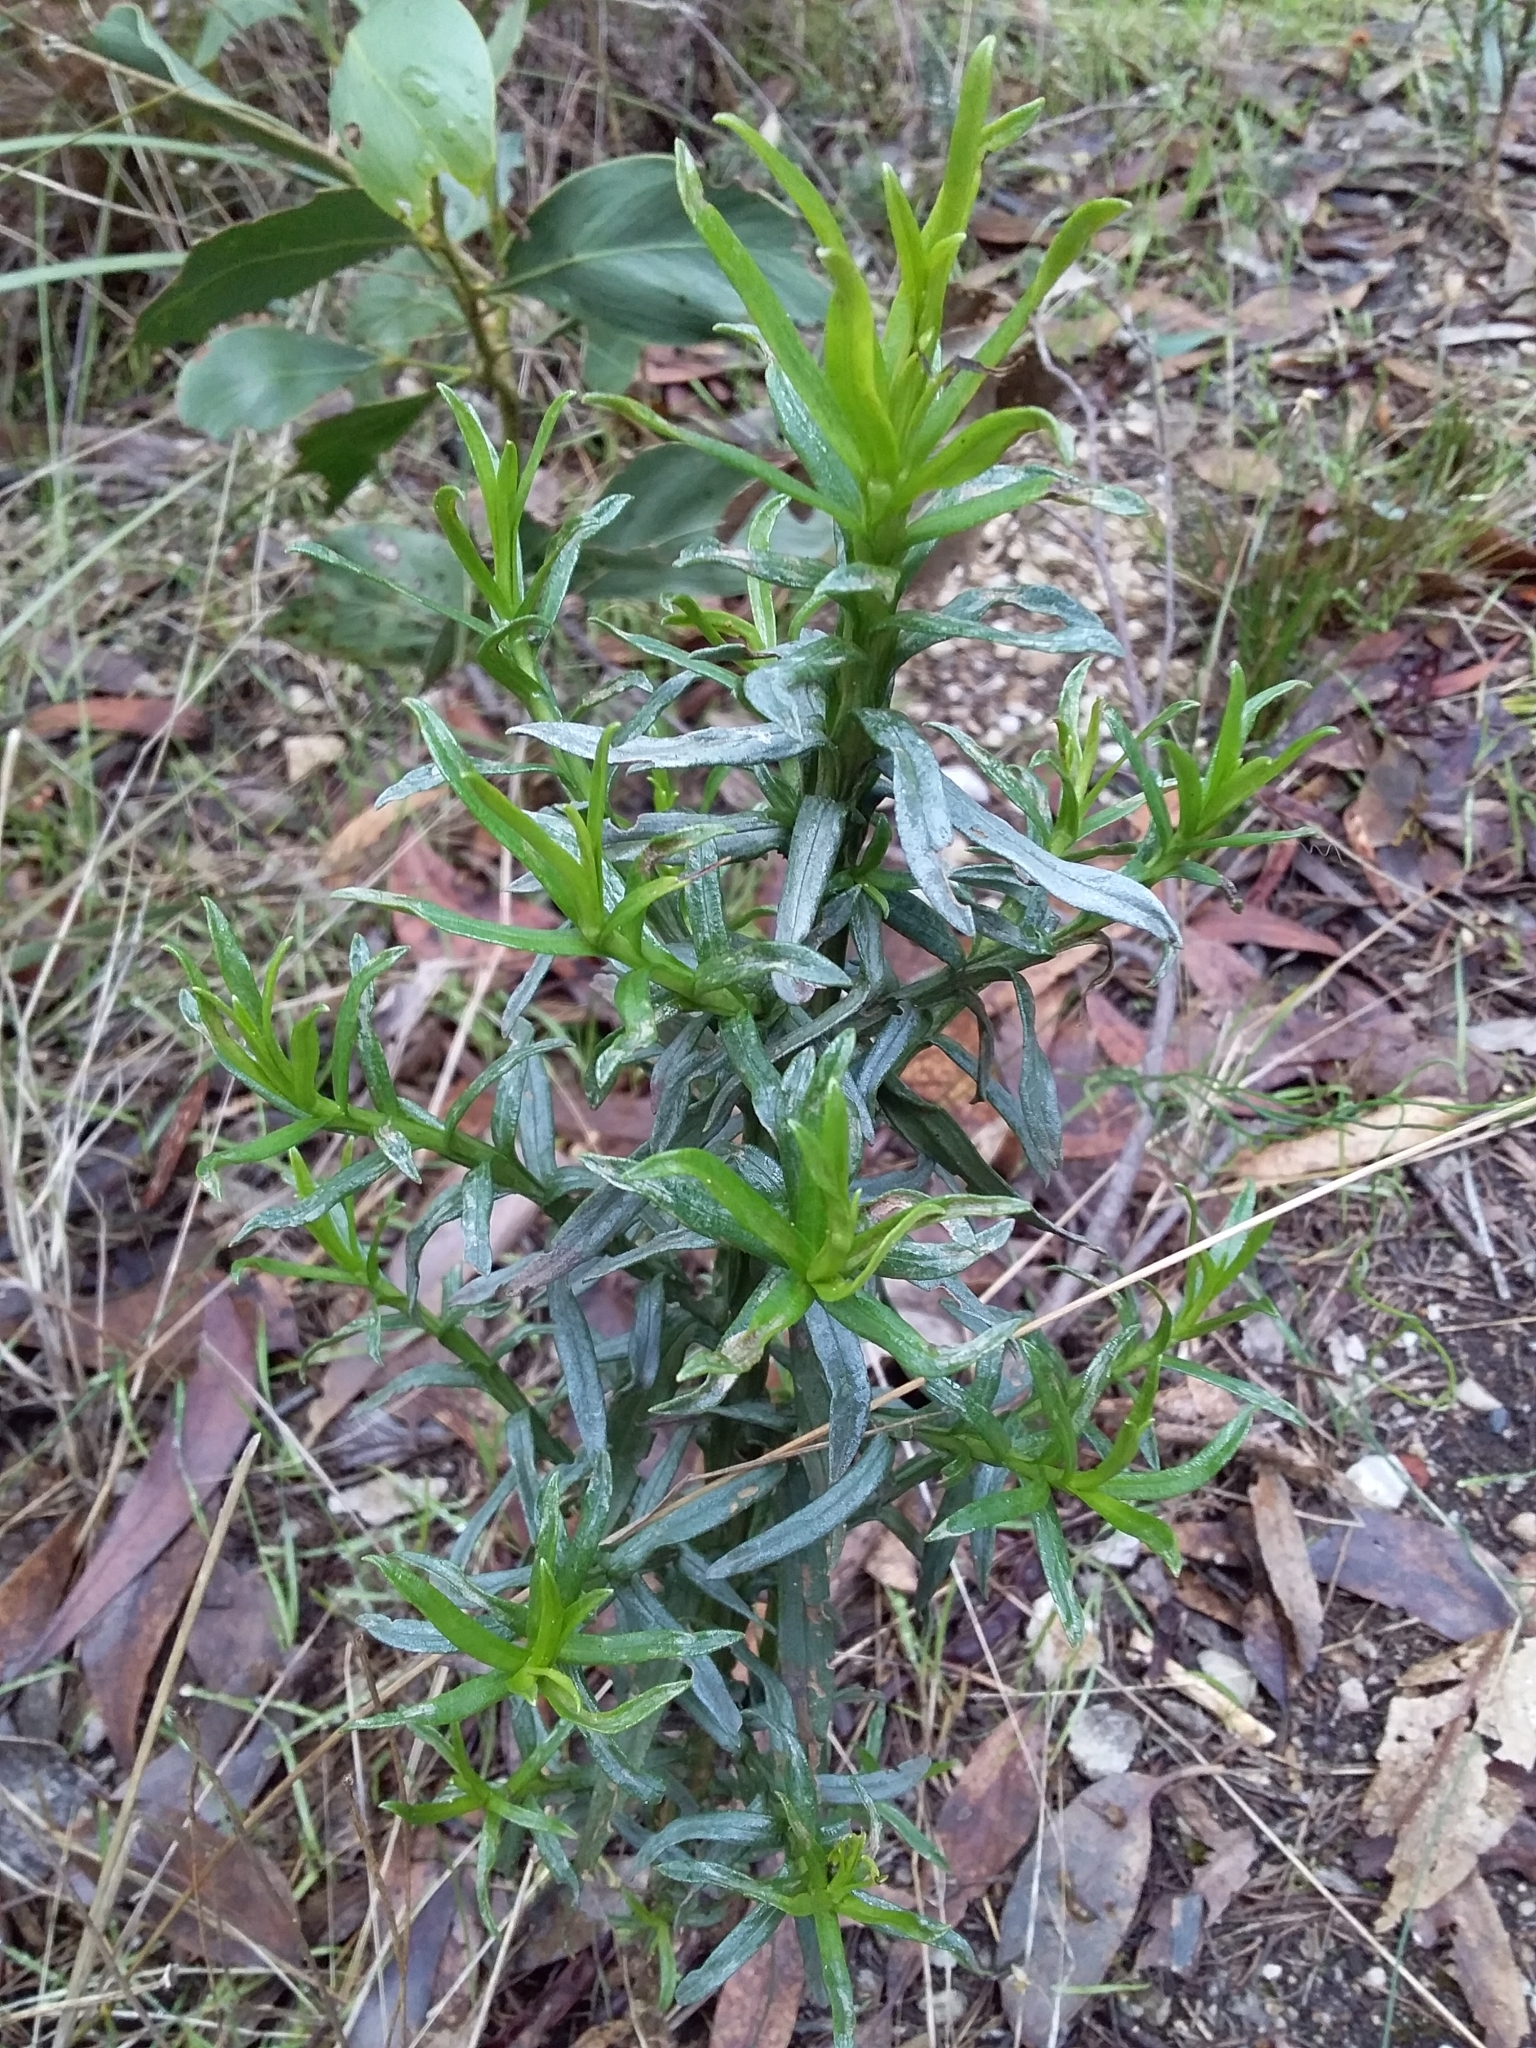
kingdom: Plantae
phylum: Tracheophyta
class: Magnoliopsida
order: Asterales
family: Asteraceae
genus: Ixodia
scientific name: Ixodia achillaeoides
